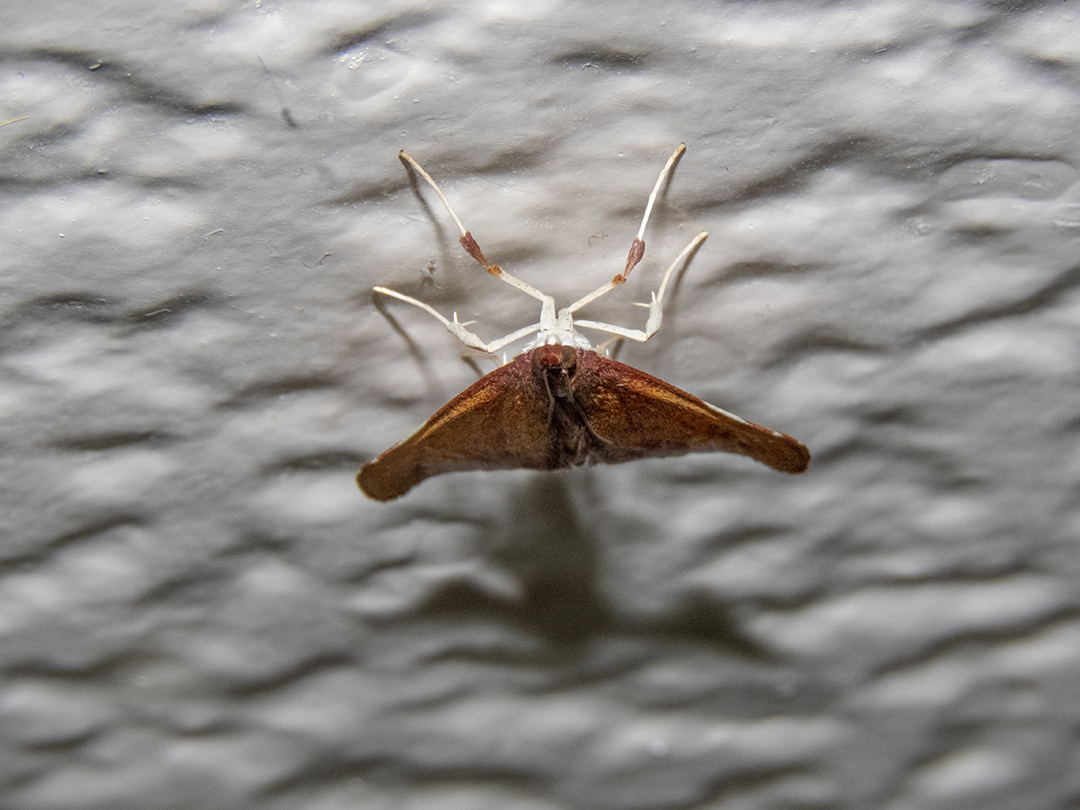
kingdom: Animalia
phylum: Arthropoda
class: Insecta
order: Lepidoptera
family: Crambidae
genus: Deana
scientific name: Deana hybreasalis
